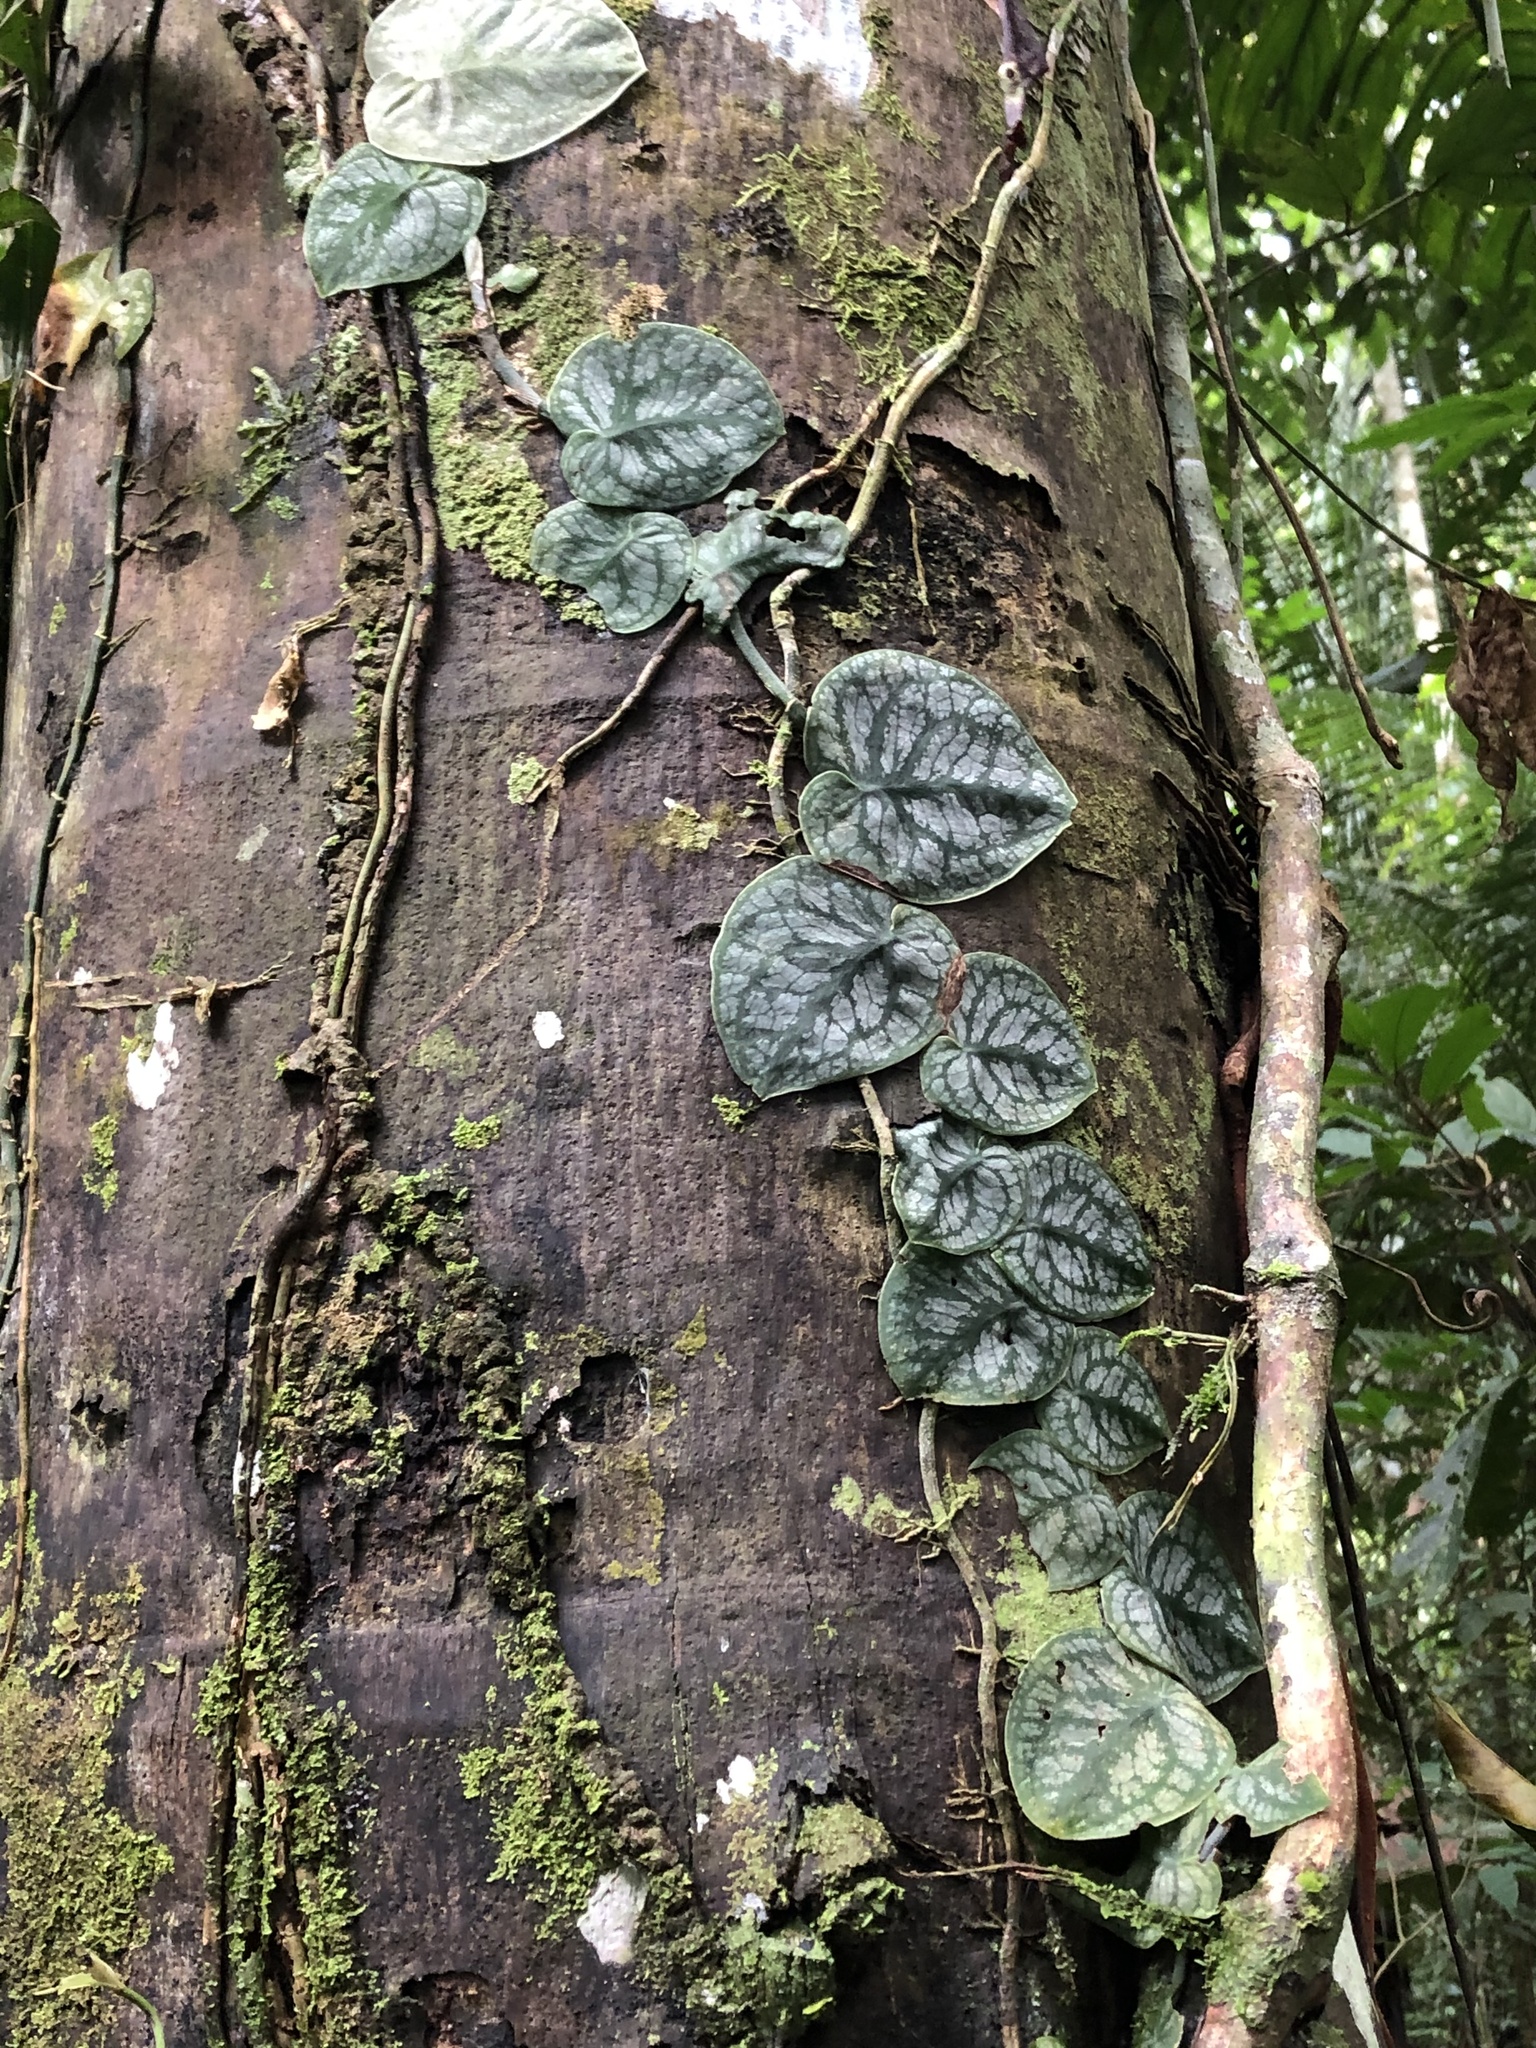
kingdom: Plantae
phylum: Tracheophyta
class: Liliopsida
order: Alismatales
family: Araceae
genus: Monstera
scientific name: Monstera dubia
